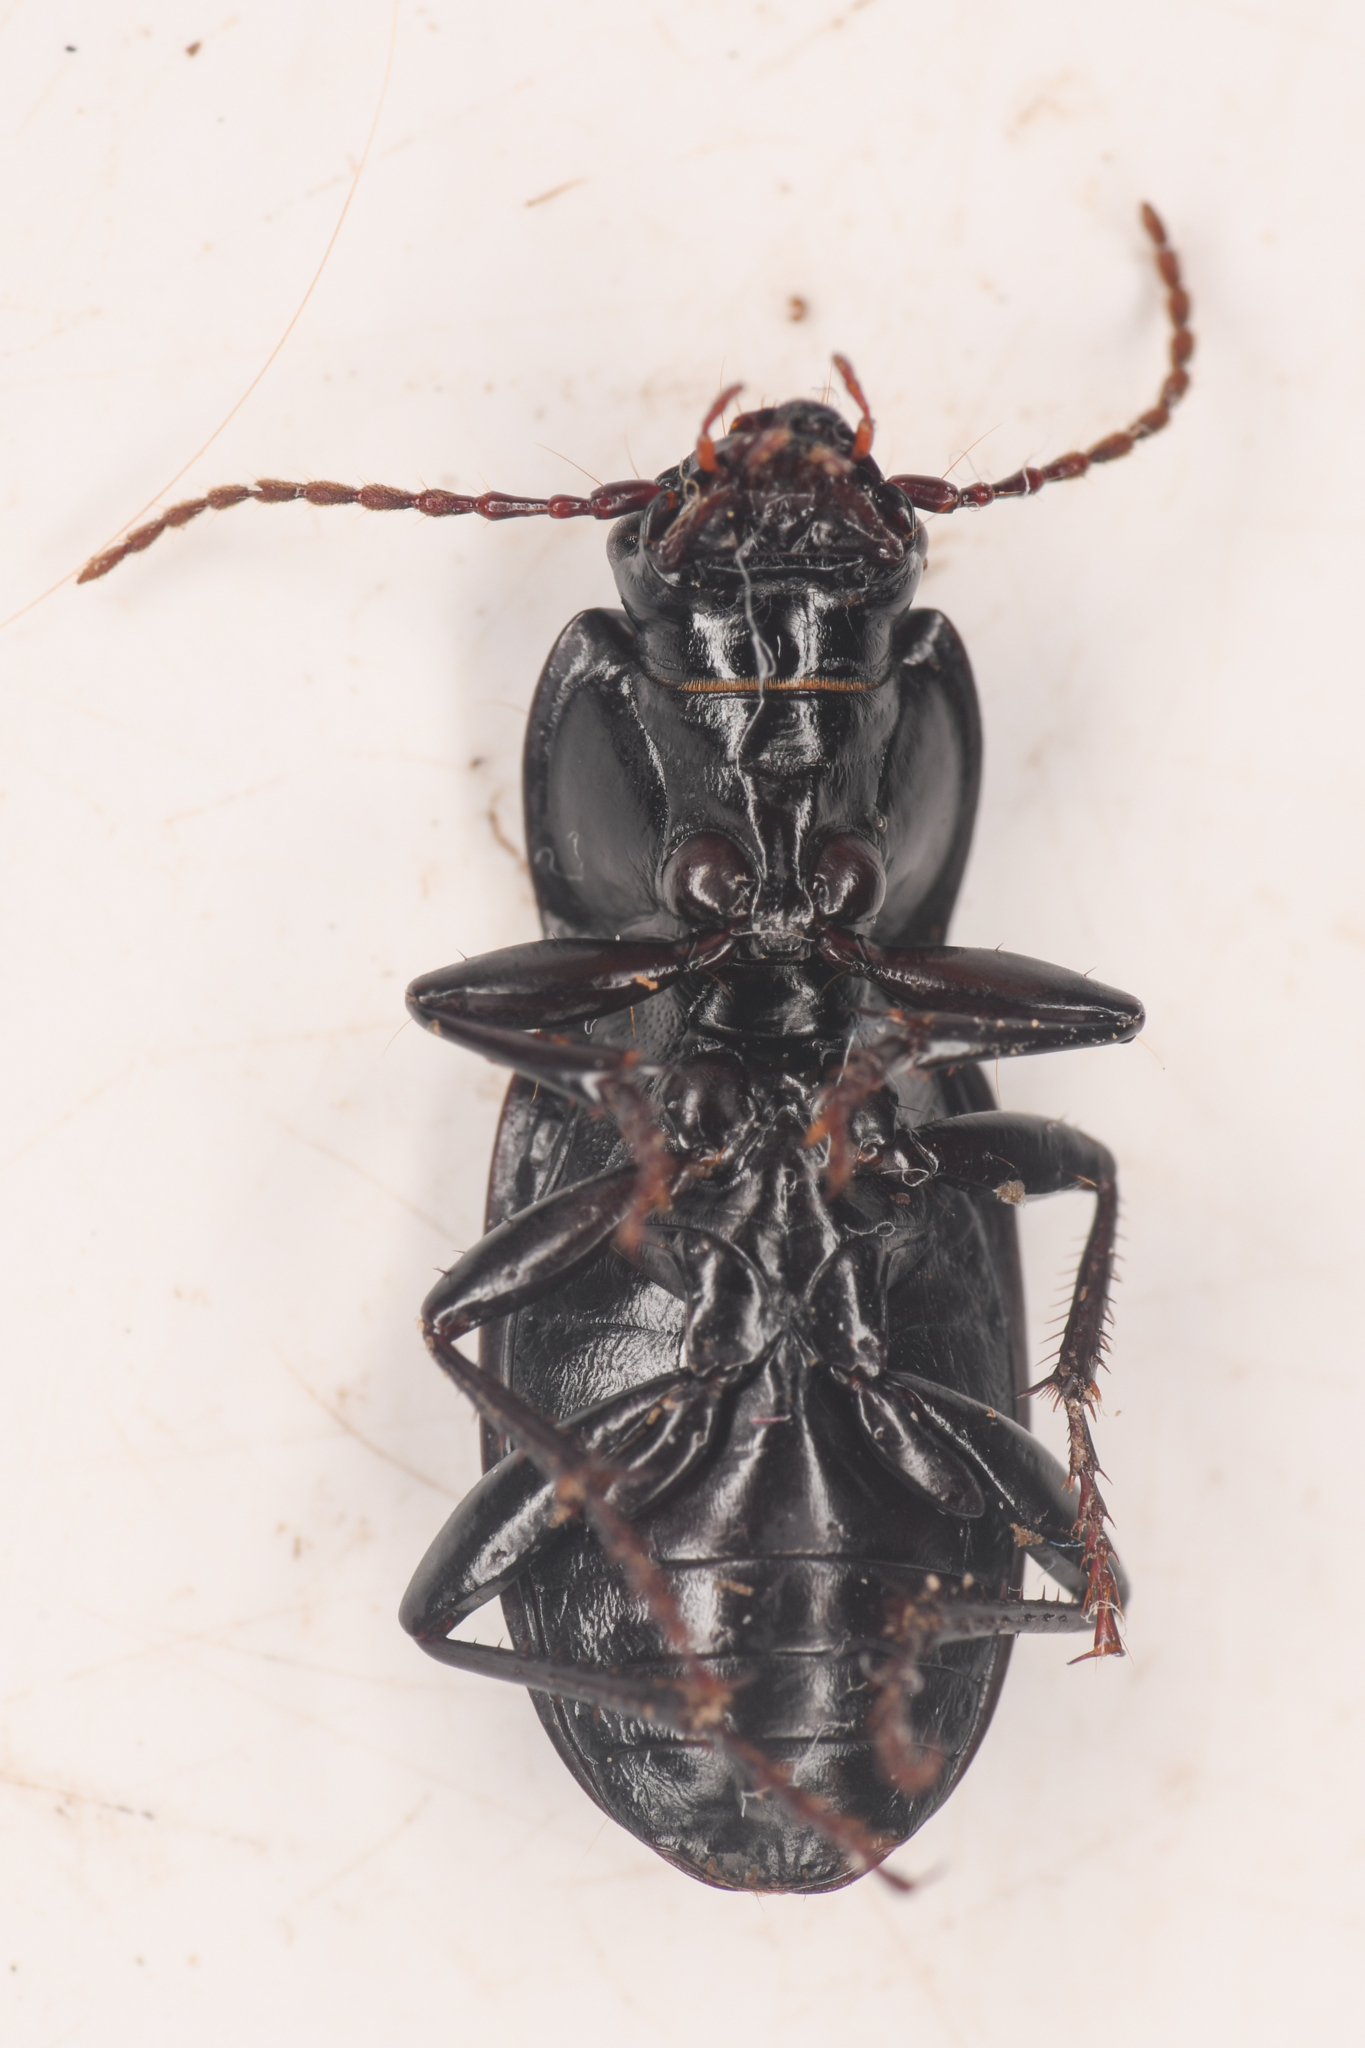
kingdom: Animalia
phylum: Arthropoda
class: Insecta
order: Coleoptera
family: Carabidae
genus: Pterostichus
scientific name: Pterostichus herculaneus
